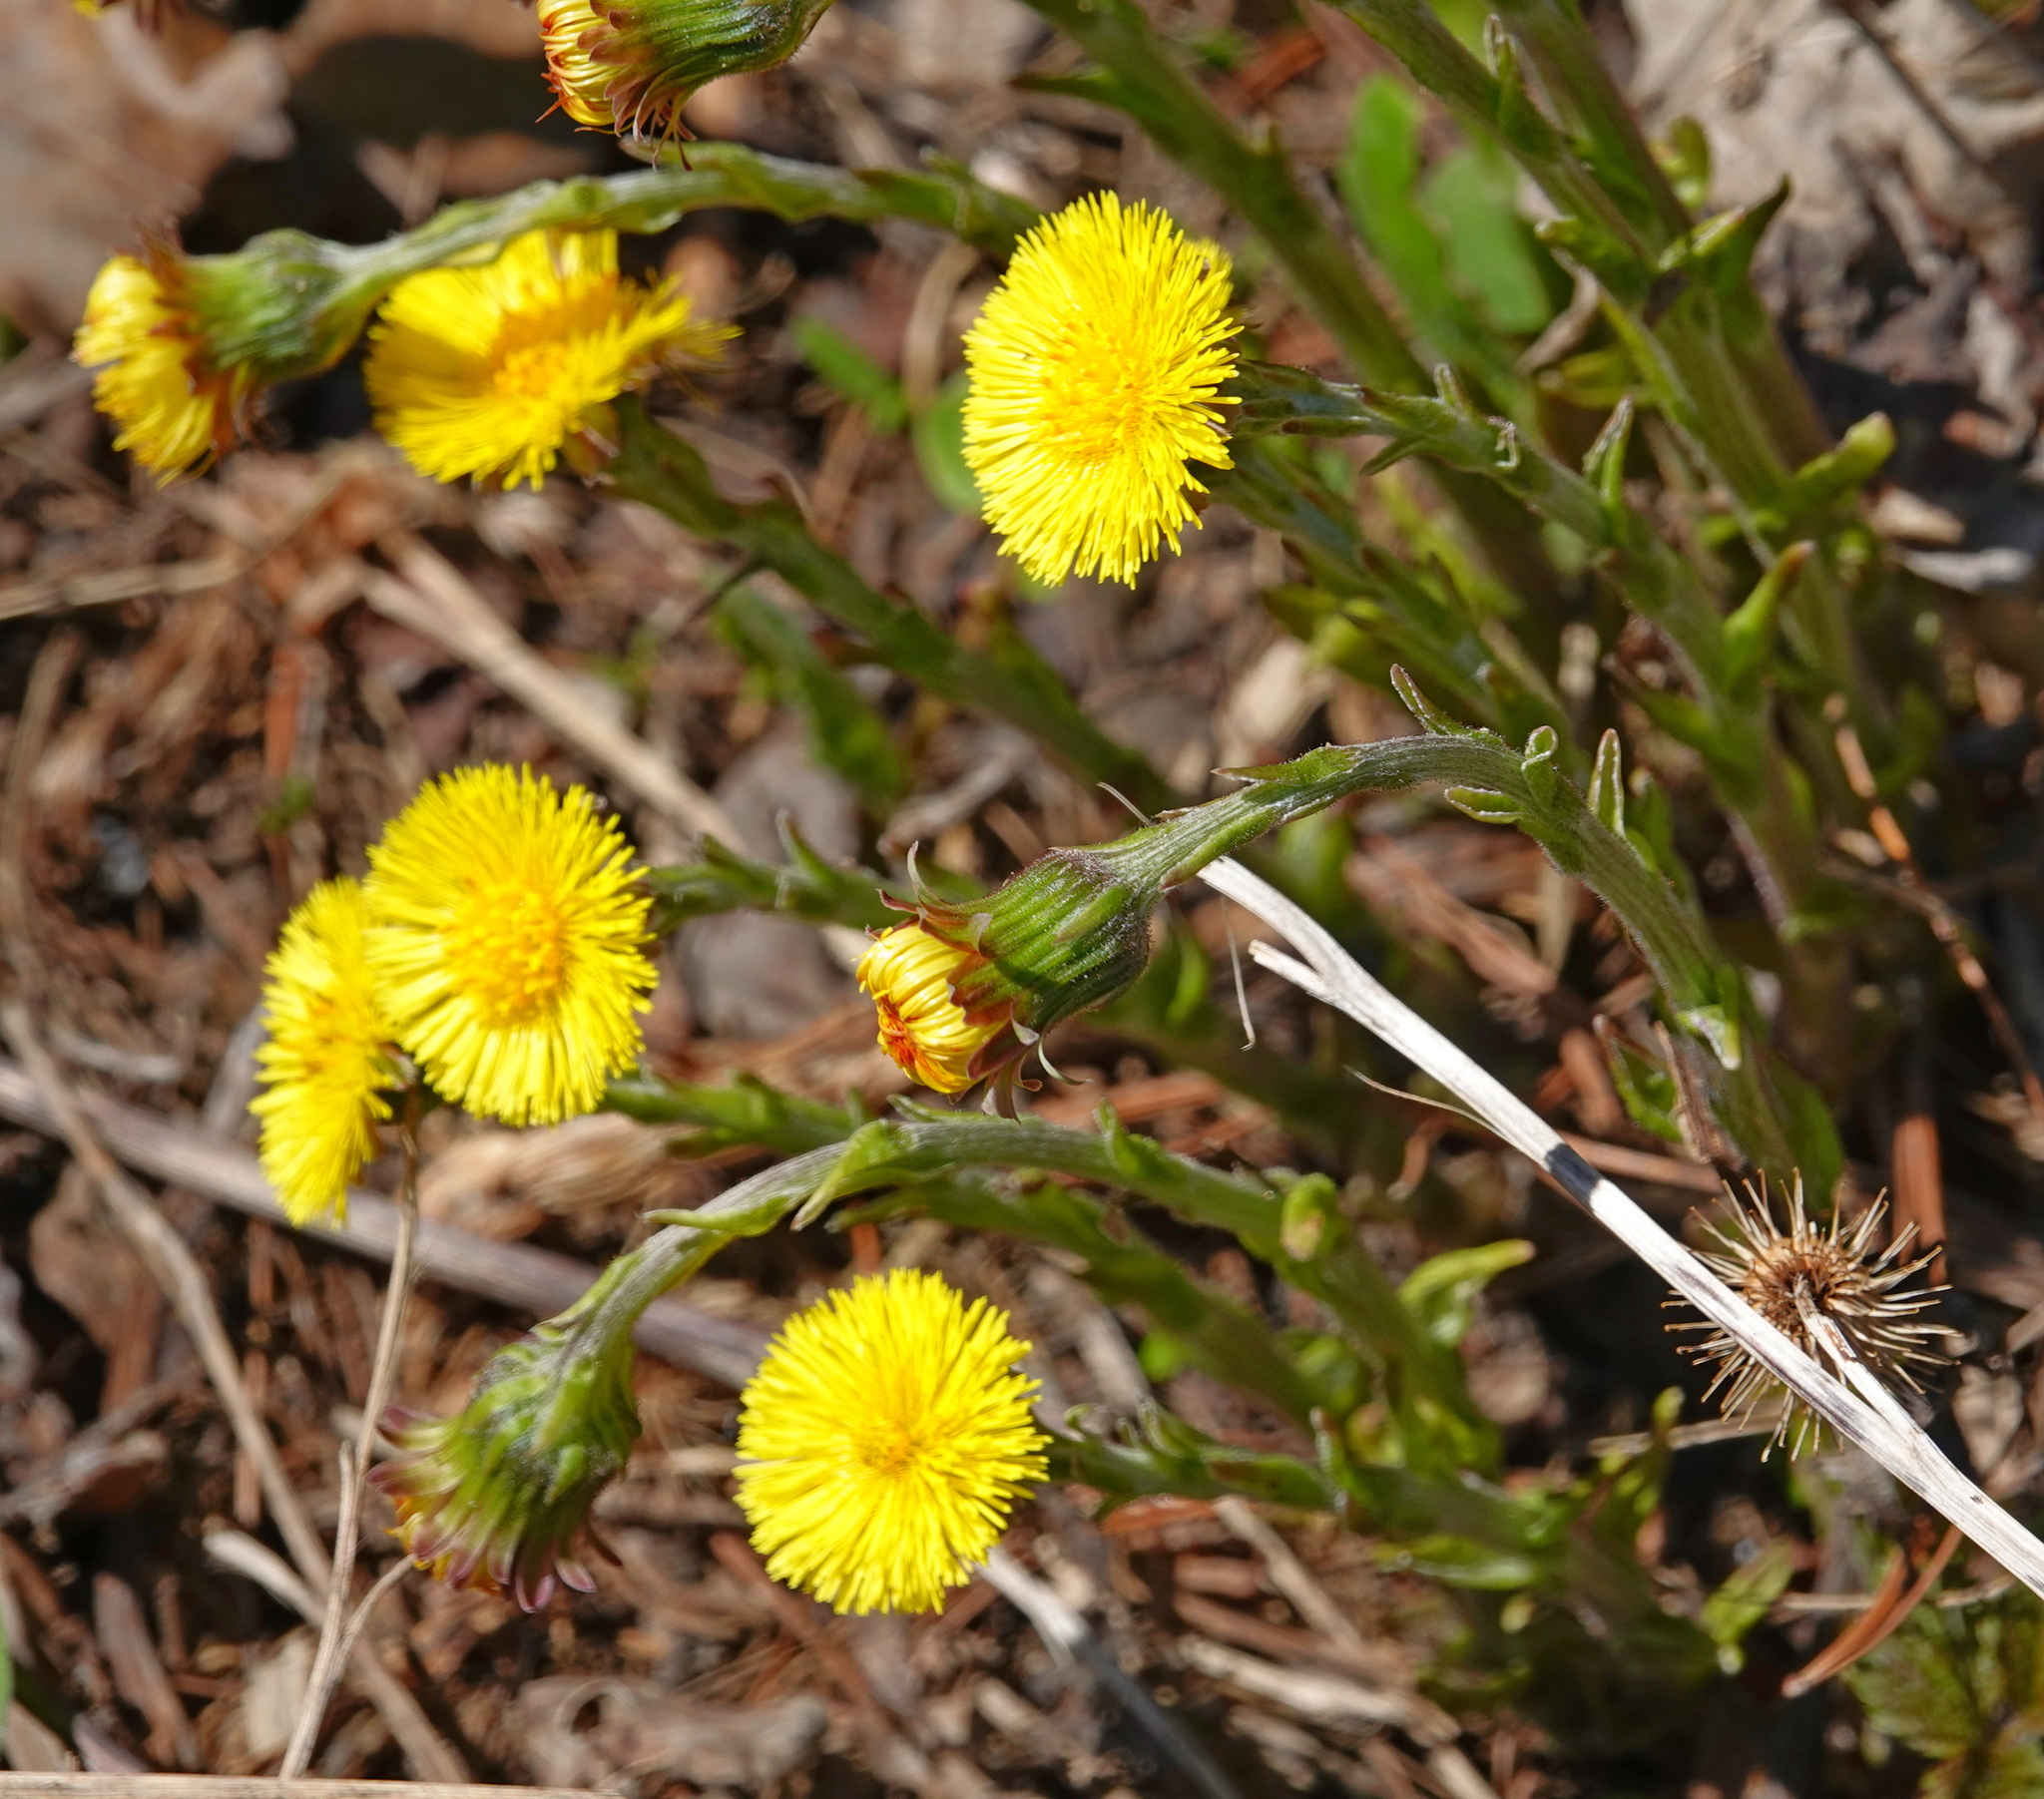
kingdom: Plantae
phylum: Tracheophyta
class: Magnoliopsida
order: Asterales
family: Asteraceae
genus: Tussilago
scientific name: Tussilago farfara
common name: Coltsfoot
